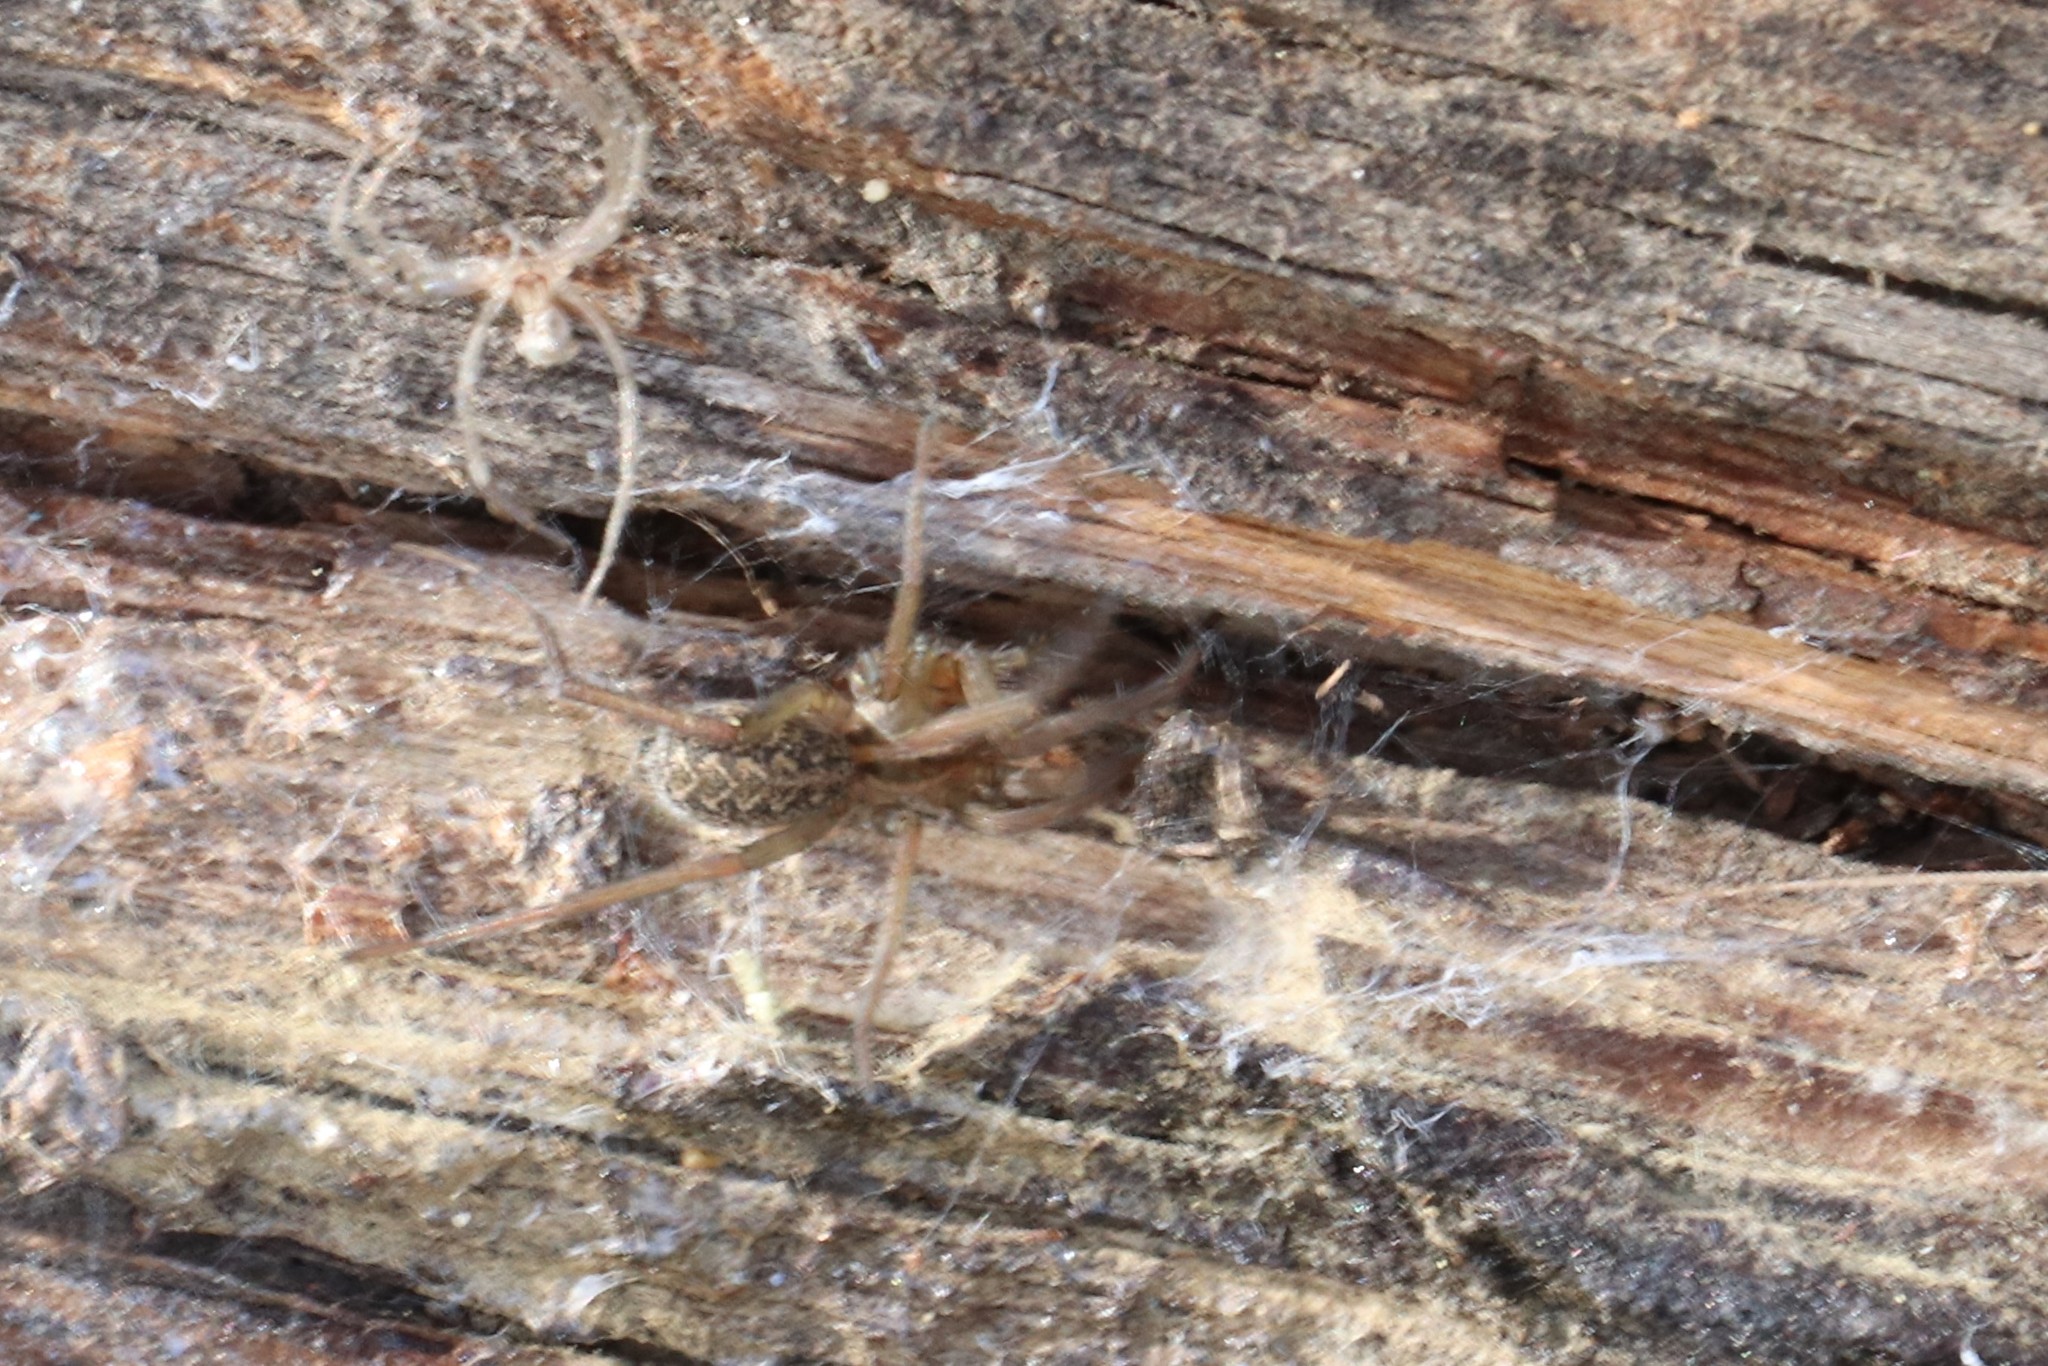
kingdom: Animalia
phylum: Arthropoda
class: Arachnida
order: Araneae
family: Agelenidae
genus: Eratigena
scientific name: Eratigena agrestis
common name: Hobo spider
